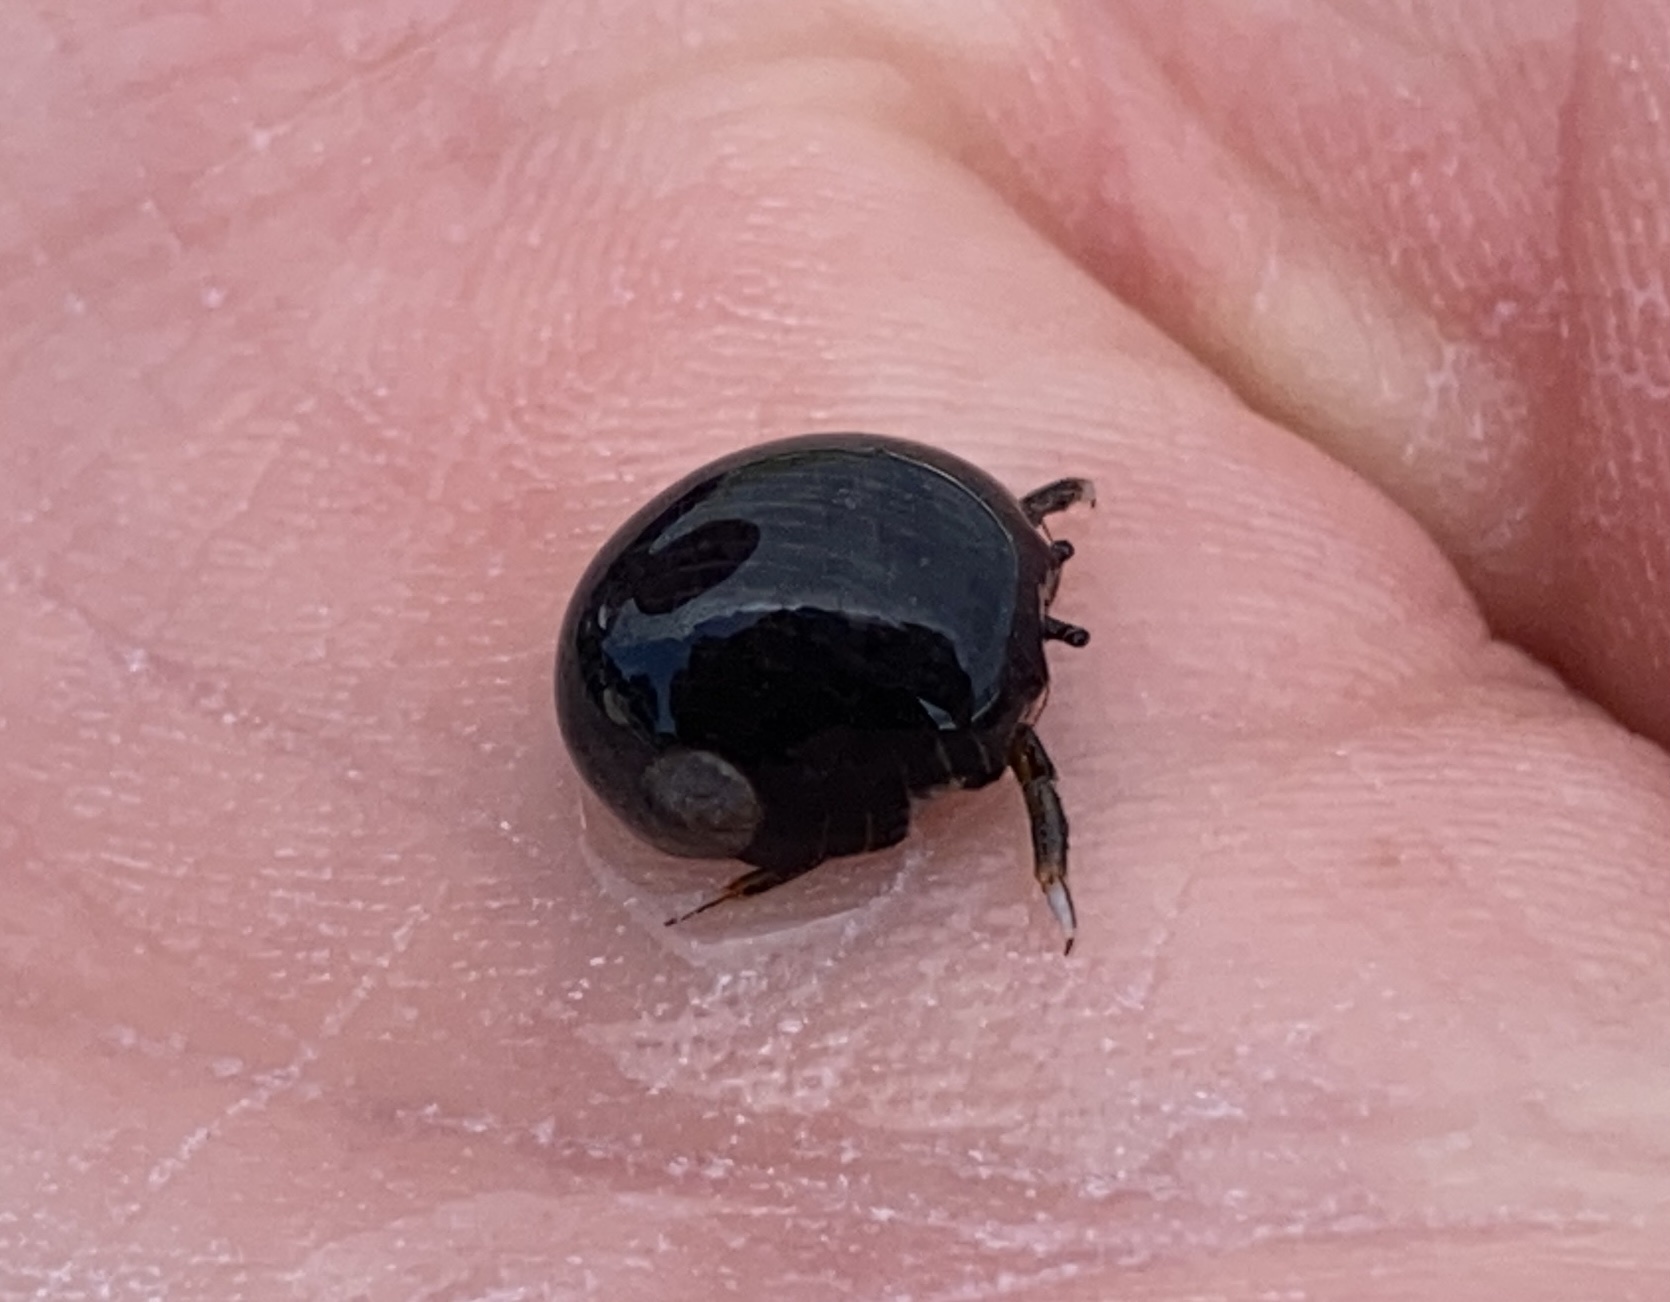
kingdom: Animalia
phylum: Arthropoda
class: Malacostraca
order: Decapoda
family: Diogenidae
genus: Clibanarius
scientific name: Clibanarius zebra
